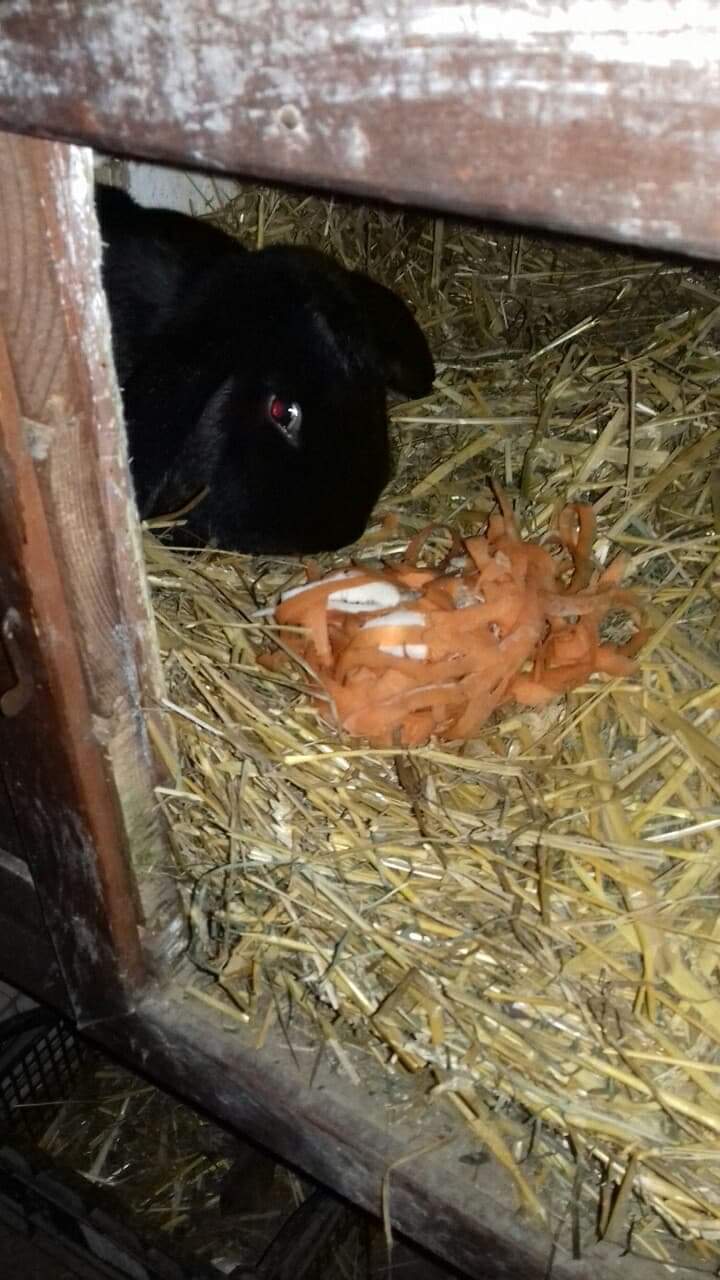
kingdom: Animalia
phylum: Chordata
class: Mammalia
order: Lagomorpha
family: Leporidae
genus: Oryctolagus
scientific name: Oryctolagus cuniculus
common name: European rabbit
